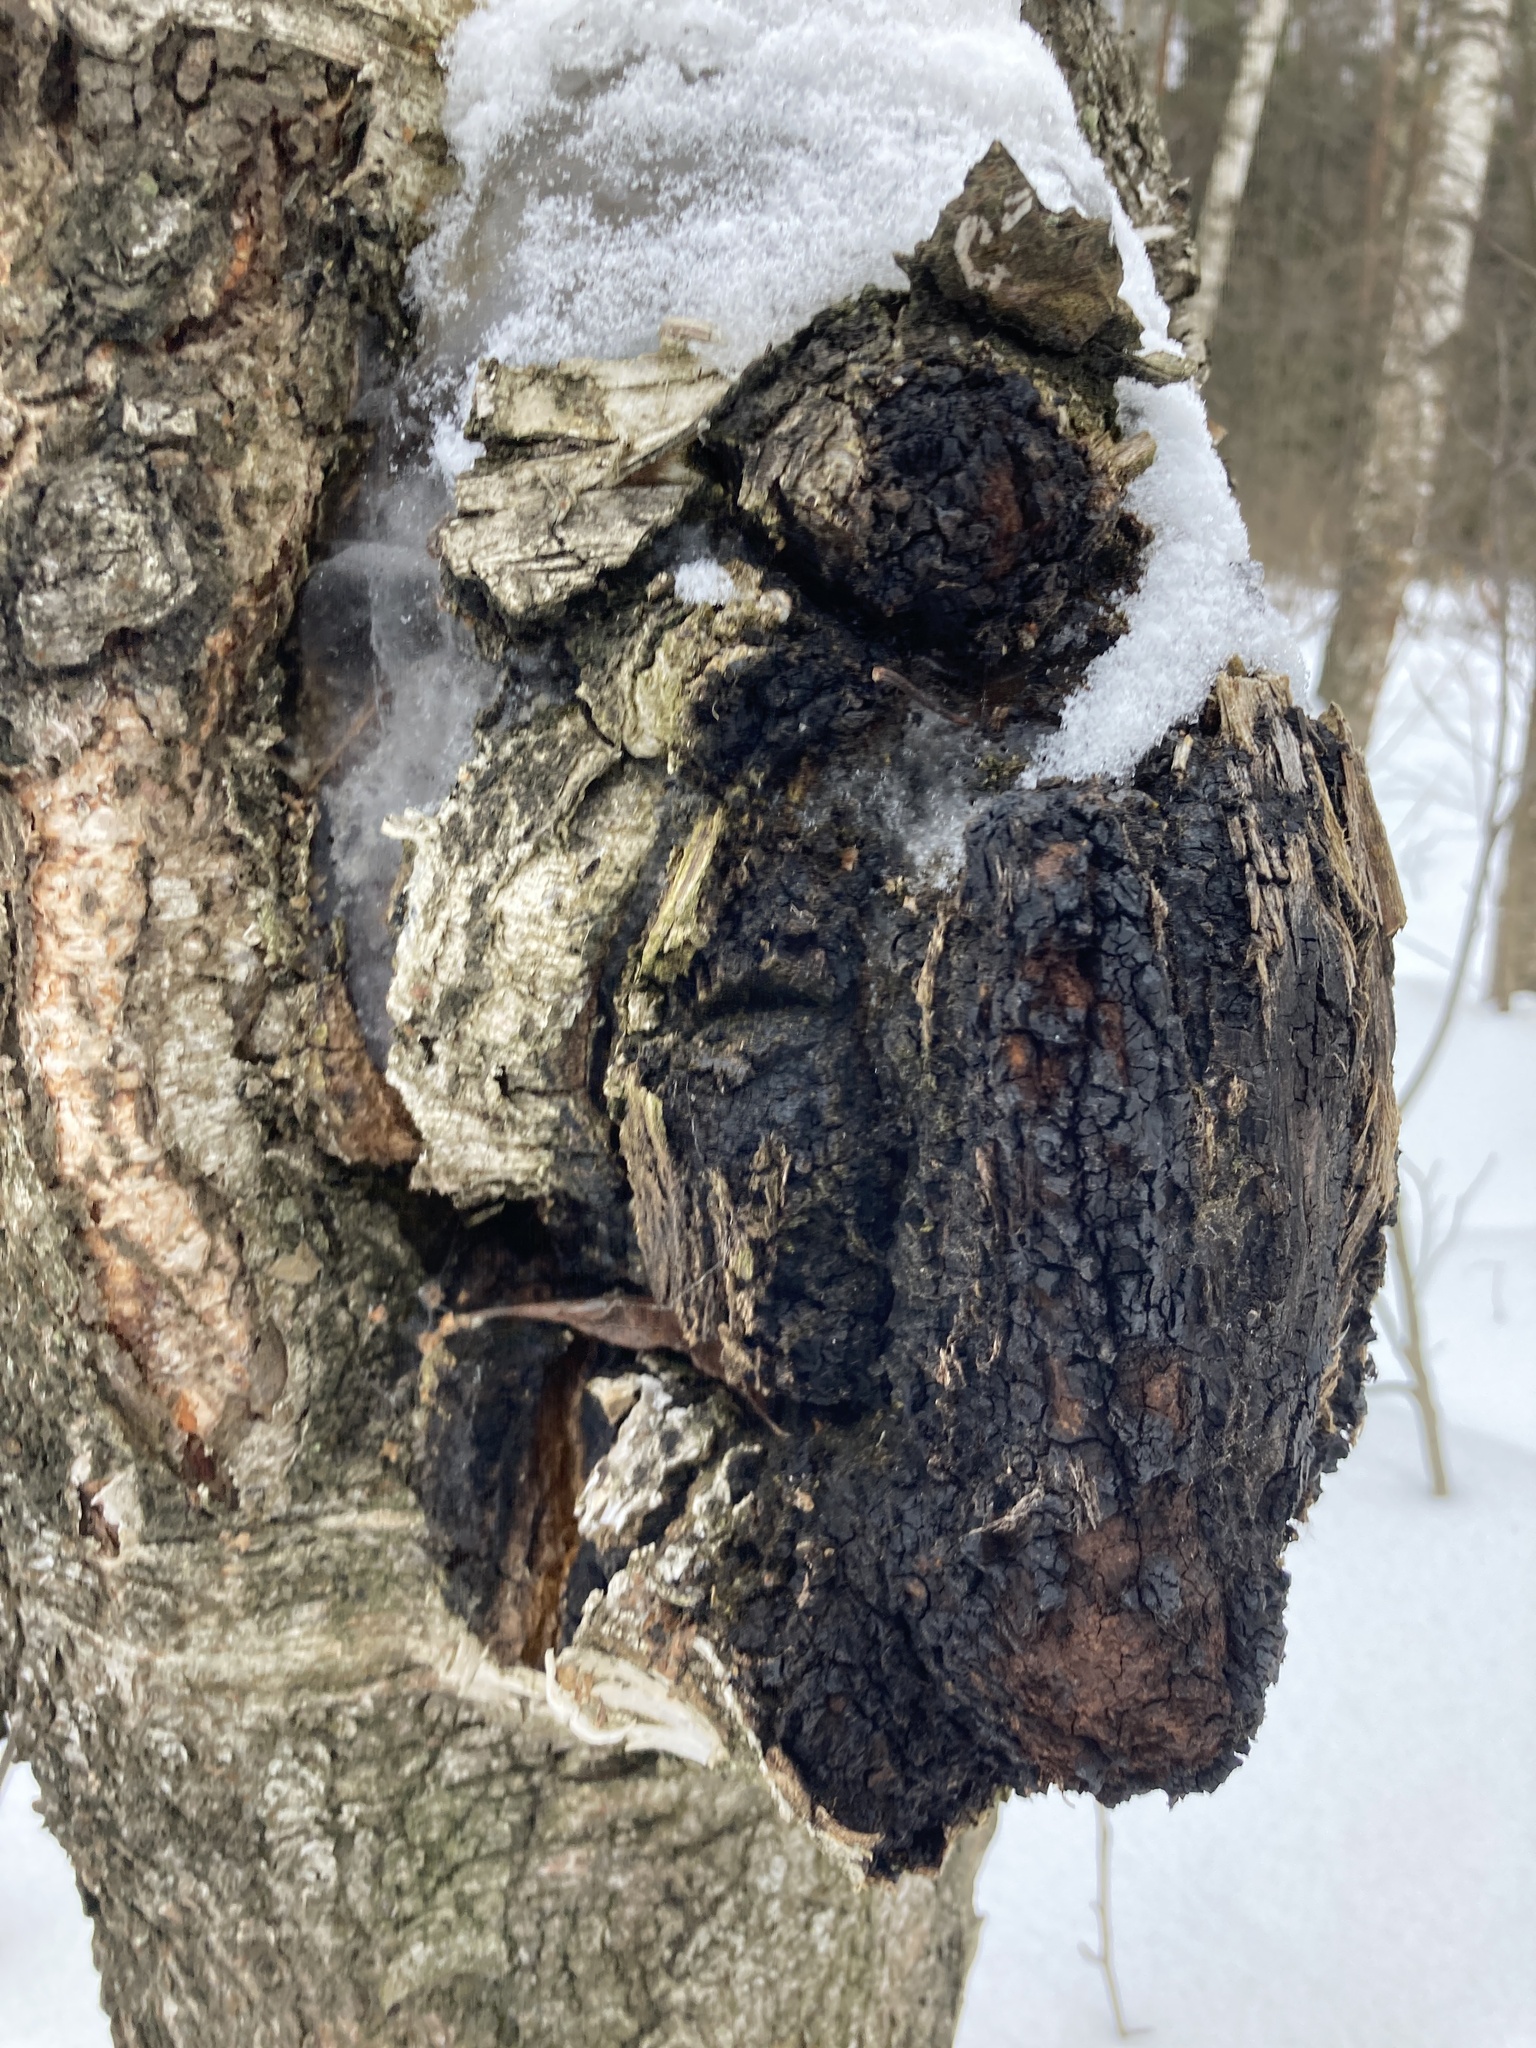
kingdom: Fungi
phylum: Basidiomycota
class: Agaricomycetes
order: Hymenochaetales
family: Hymenochaetaceae
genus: Inonotus
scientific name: Inonotus obliquus
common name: Chaga
